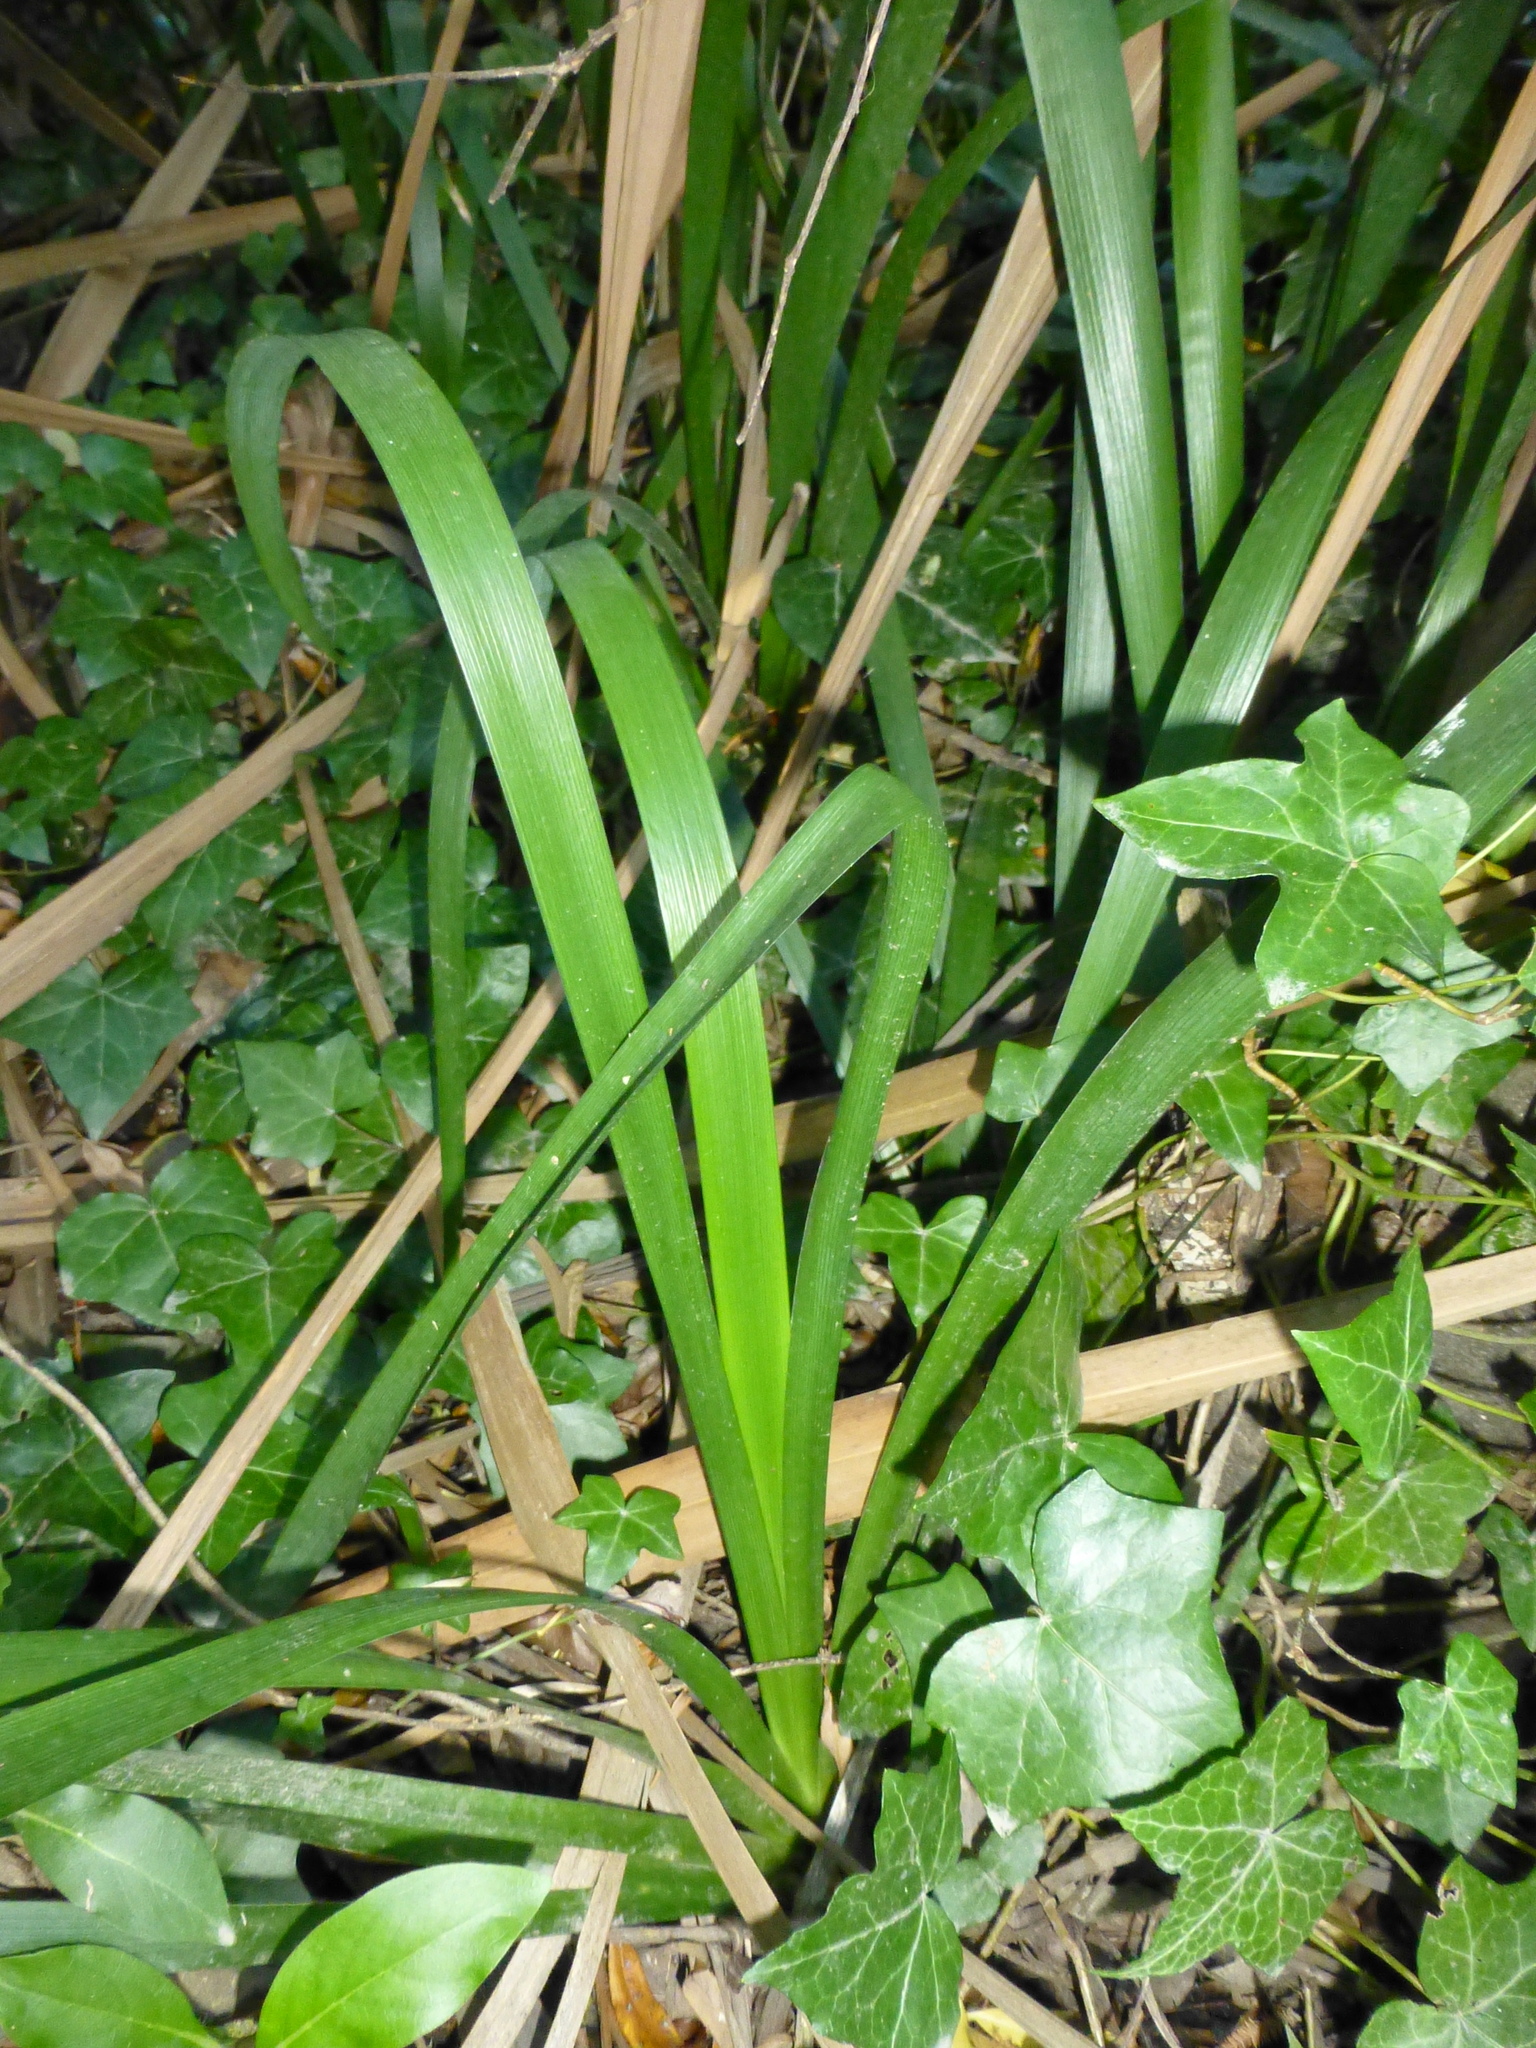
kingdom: Plantae
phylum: Tracheophyta
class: Liliopsida
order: Asparagales
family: Iridaceae
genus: Iris
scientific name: Iris foetidissima
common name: Stinking iris
